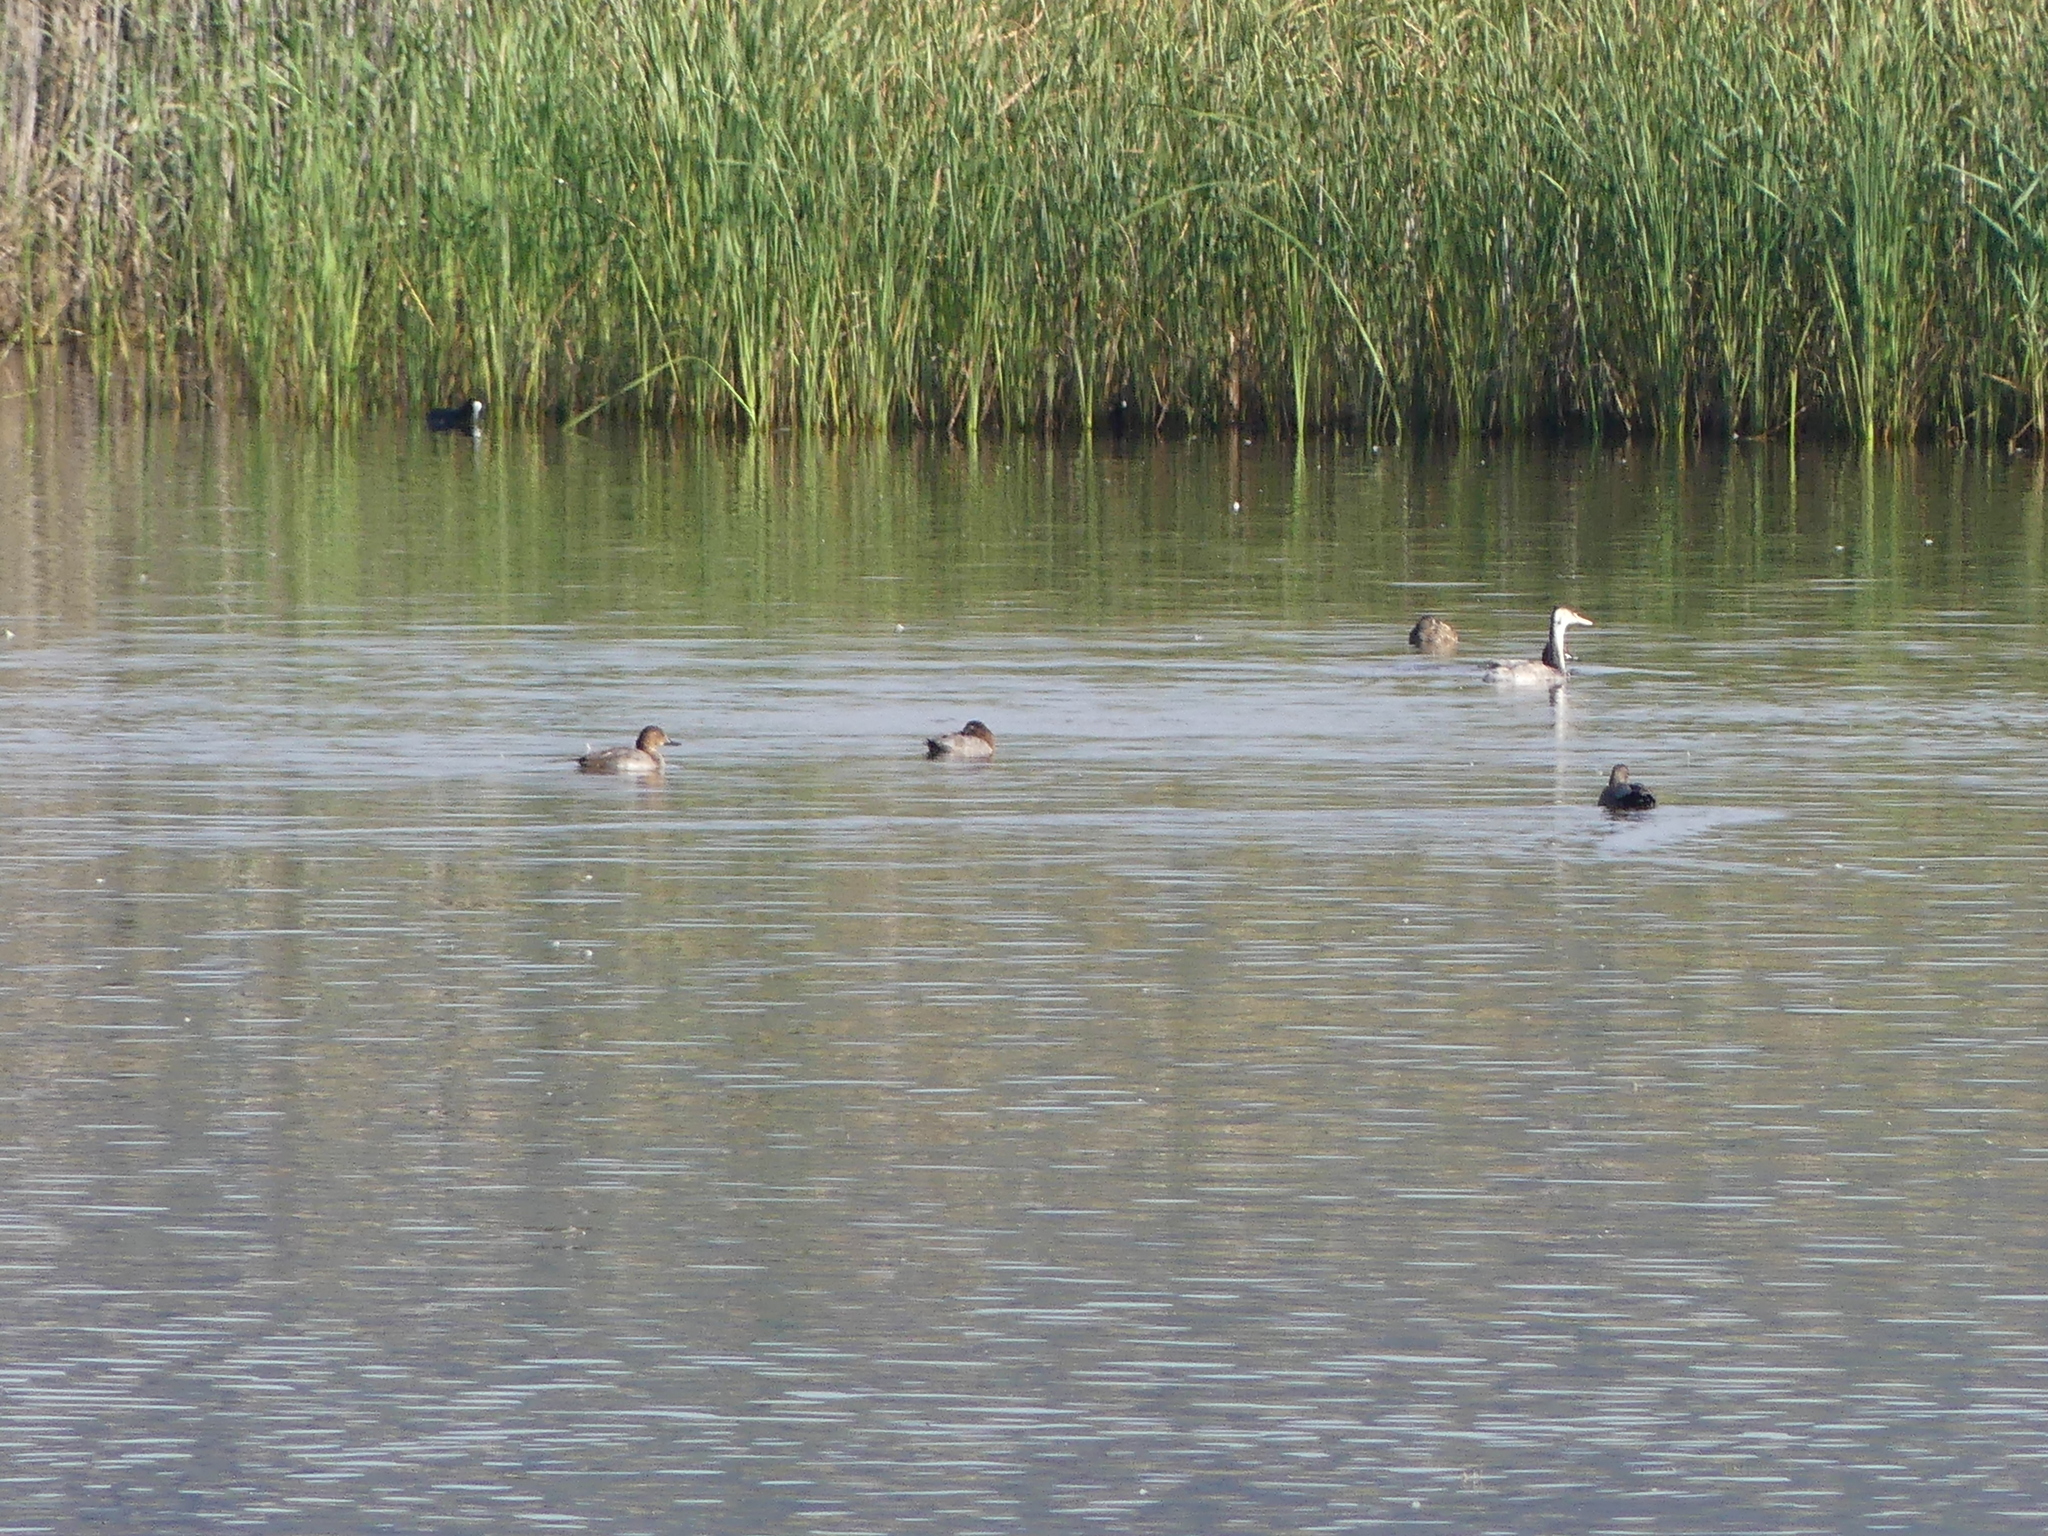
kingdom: Animalia
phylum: Chordata
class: Aves
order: Anseriformes
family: Anatidae
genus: Aythya
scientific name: Aythya ferina
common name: Common pochard
